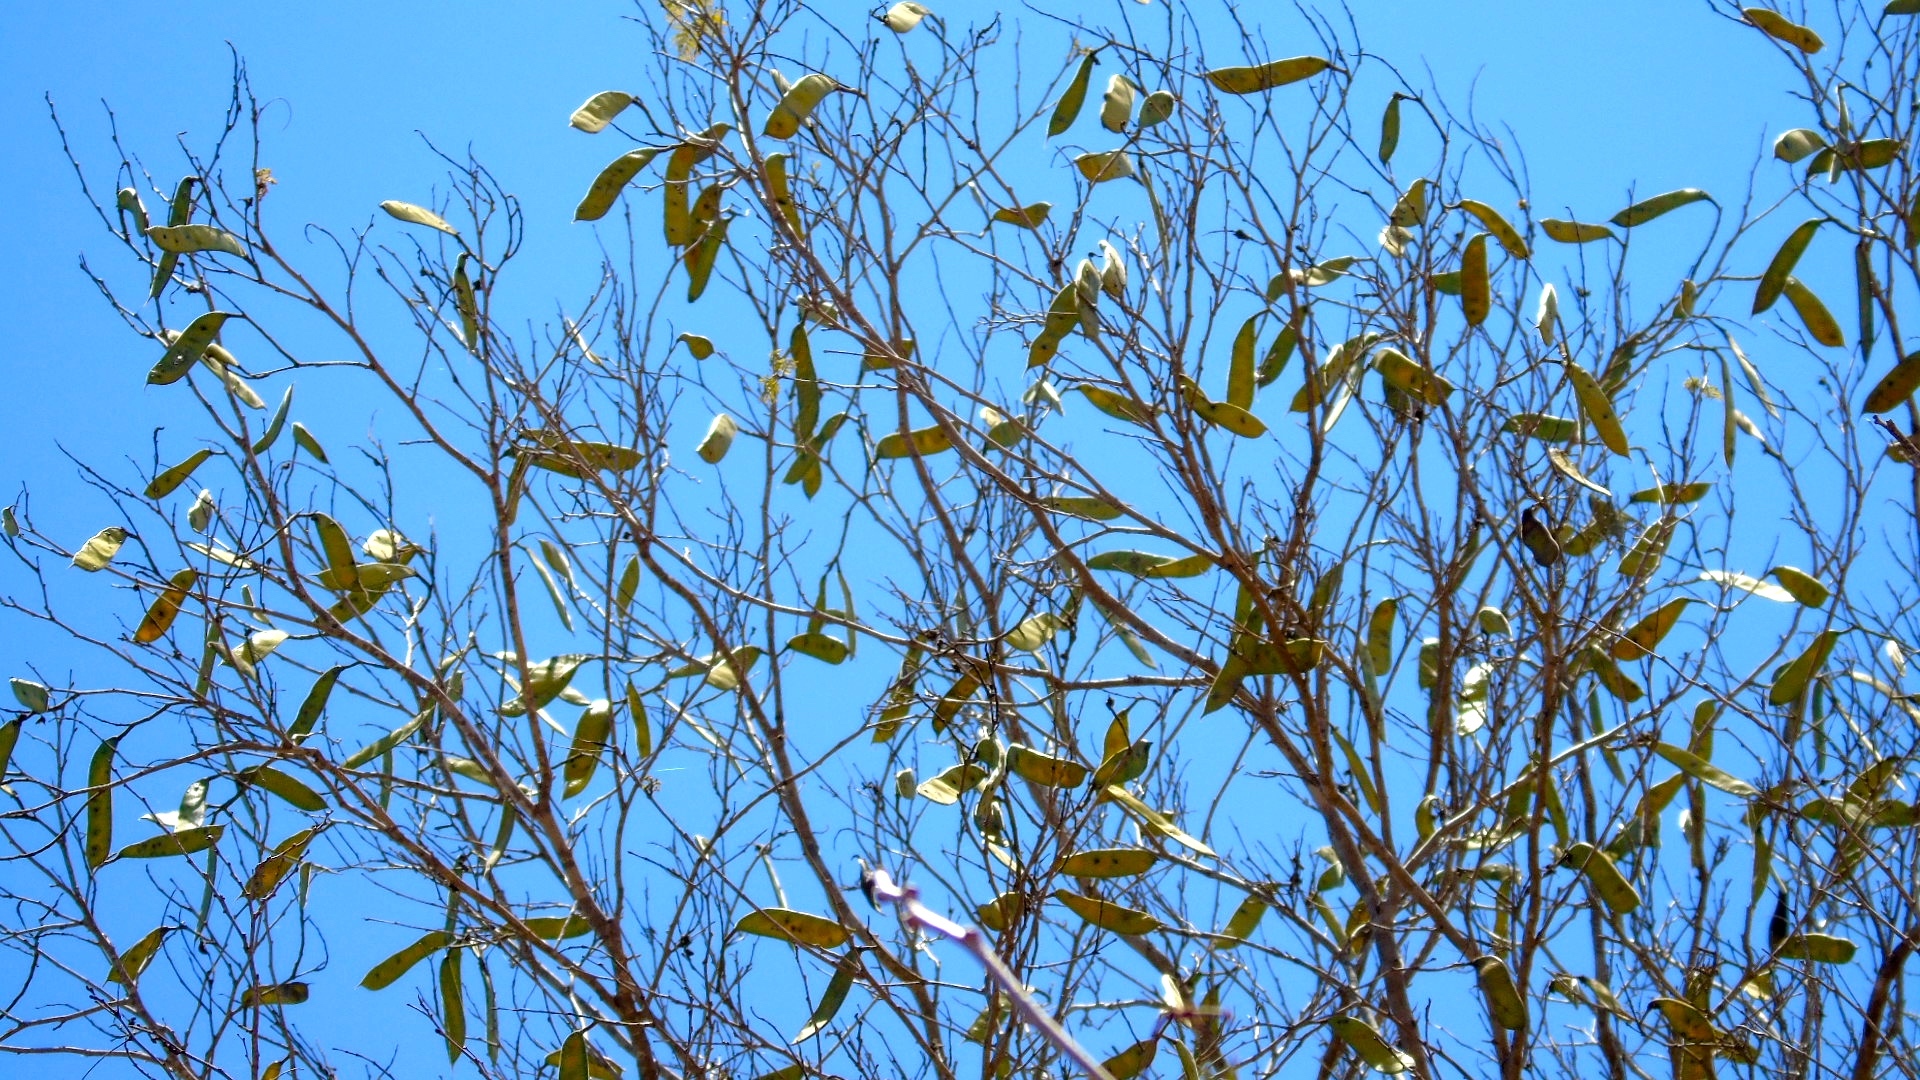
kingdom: Plantae
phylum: Tracheophyta
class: Magnoliopsida
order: Fabales
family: Fabaceae
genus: Cenostigma
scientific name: Cenostigma eriostachys
